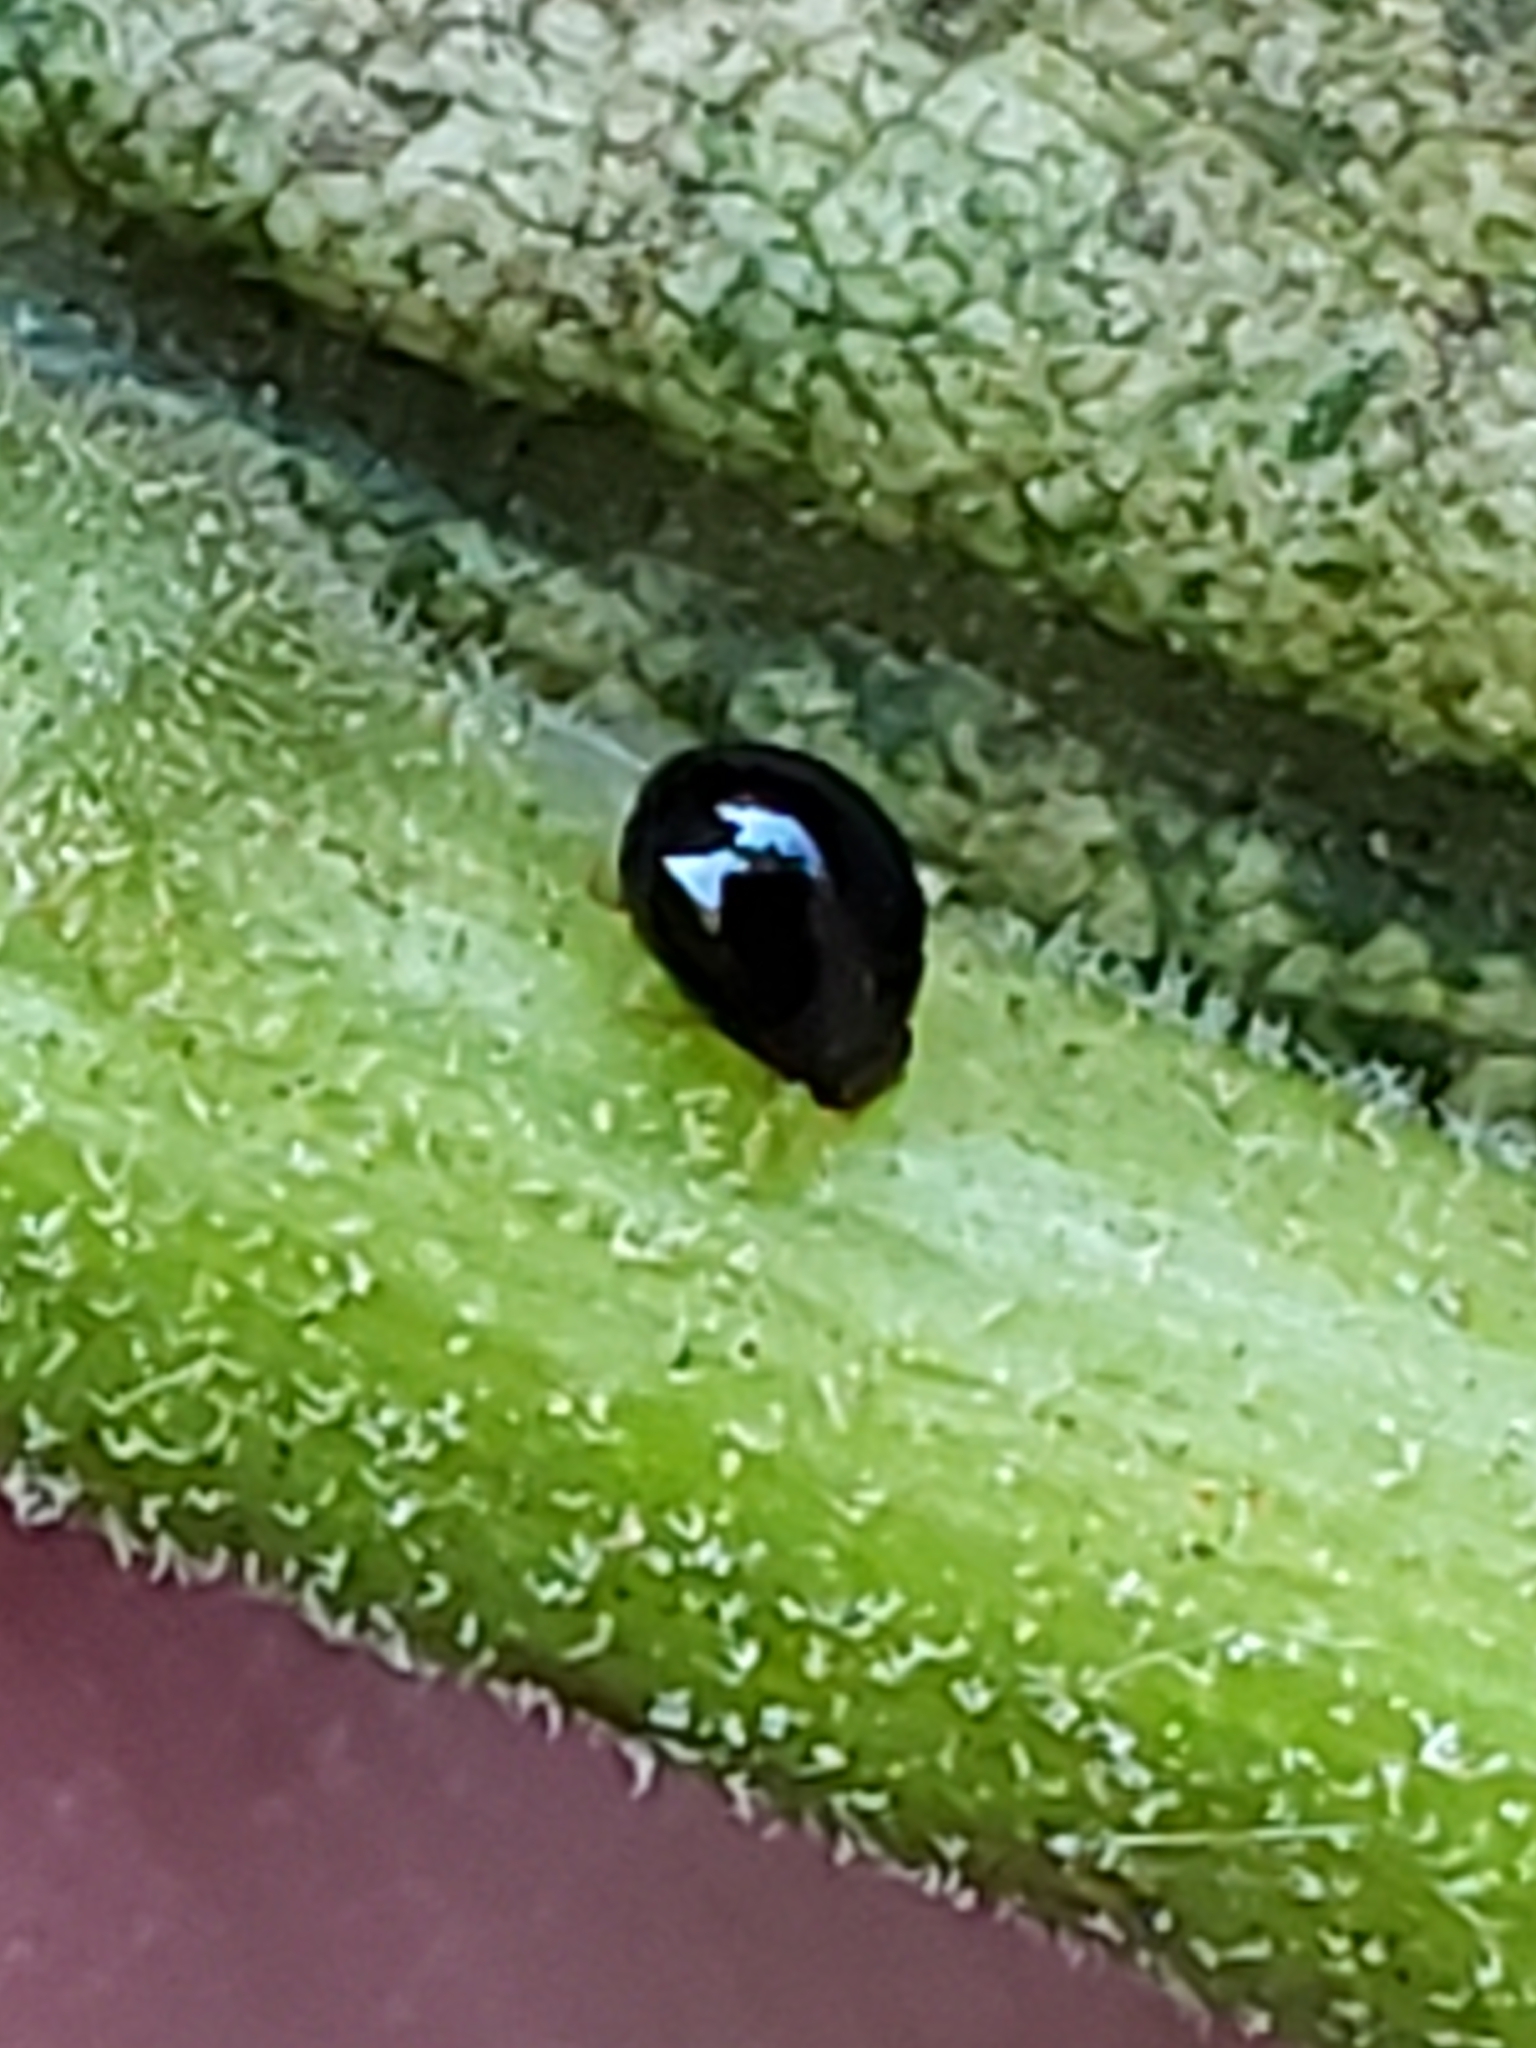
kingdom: Animalia
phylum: Arthropoda
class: Insecta
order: Coleoptera
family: Coccinellidae
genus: Microweisea
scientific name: Microweisea misella
